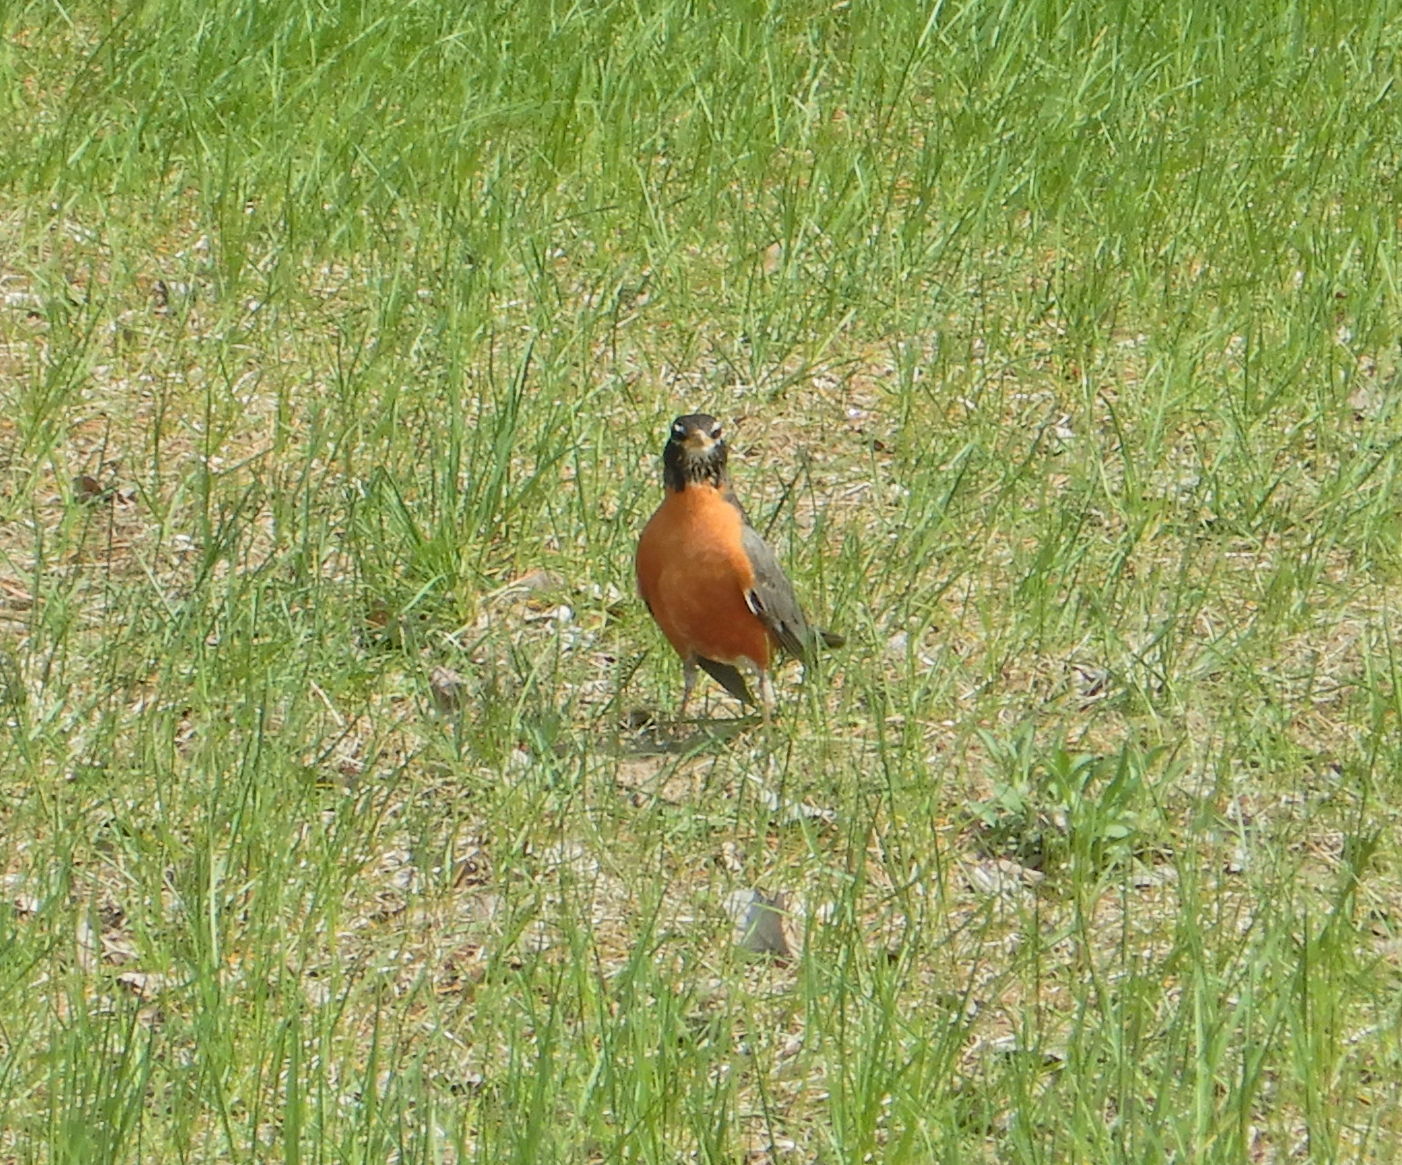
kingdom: Animalia
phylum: Chordata
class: Aves
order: Passeriformes
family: Turdidae
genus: Turdus
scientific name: Turdus migratorius
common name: American robin
